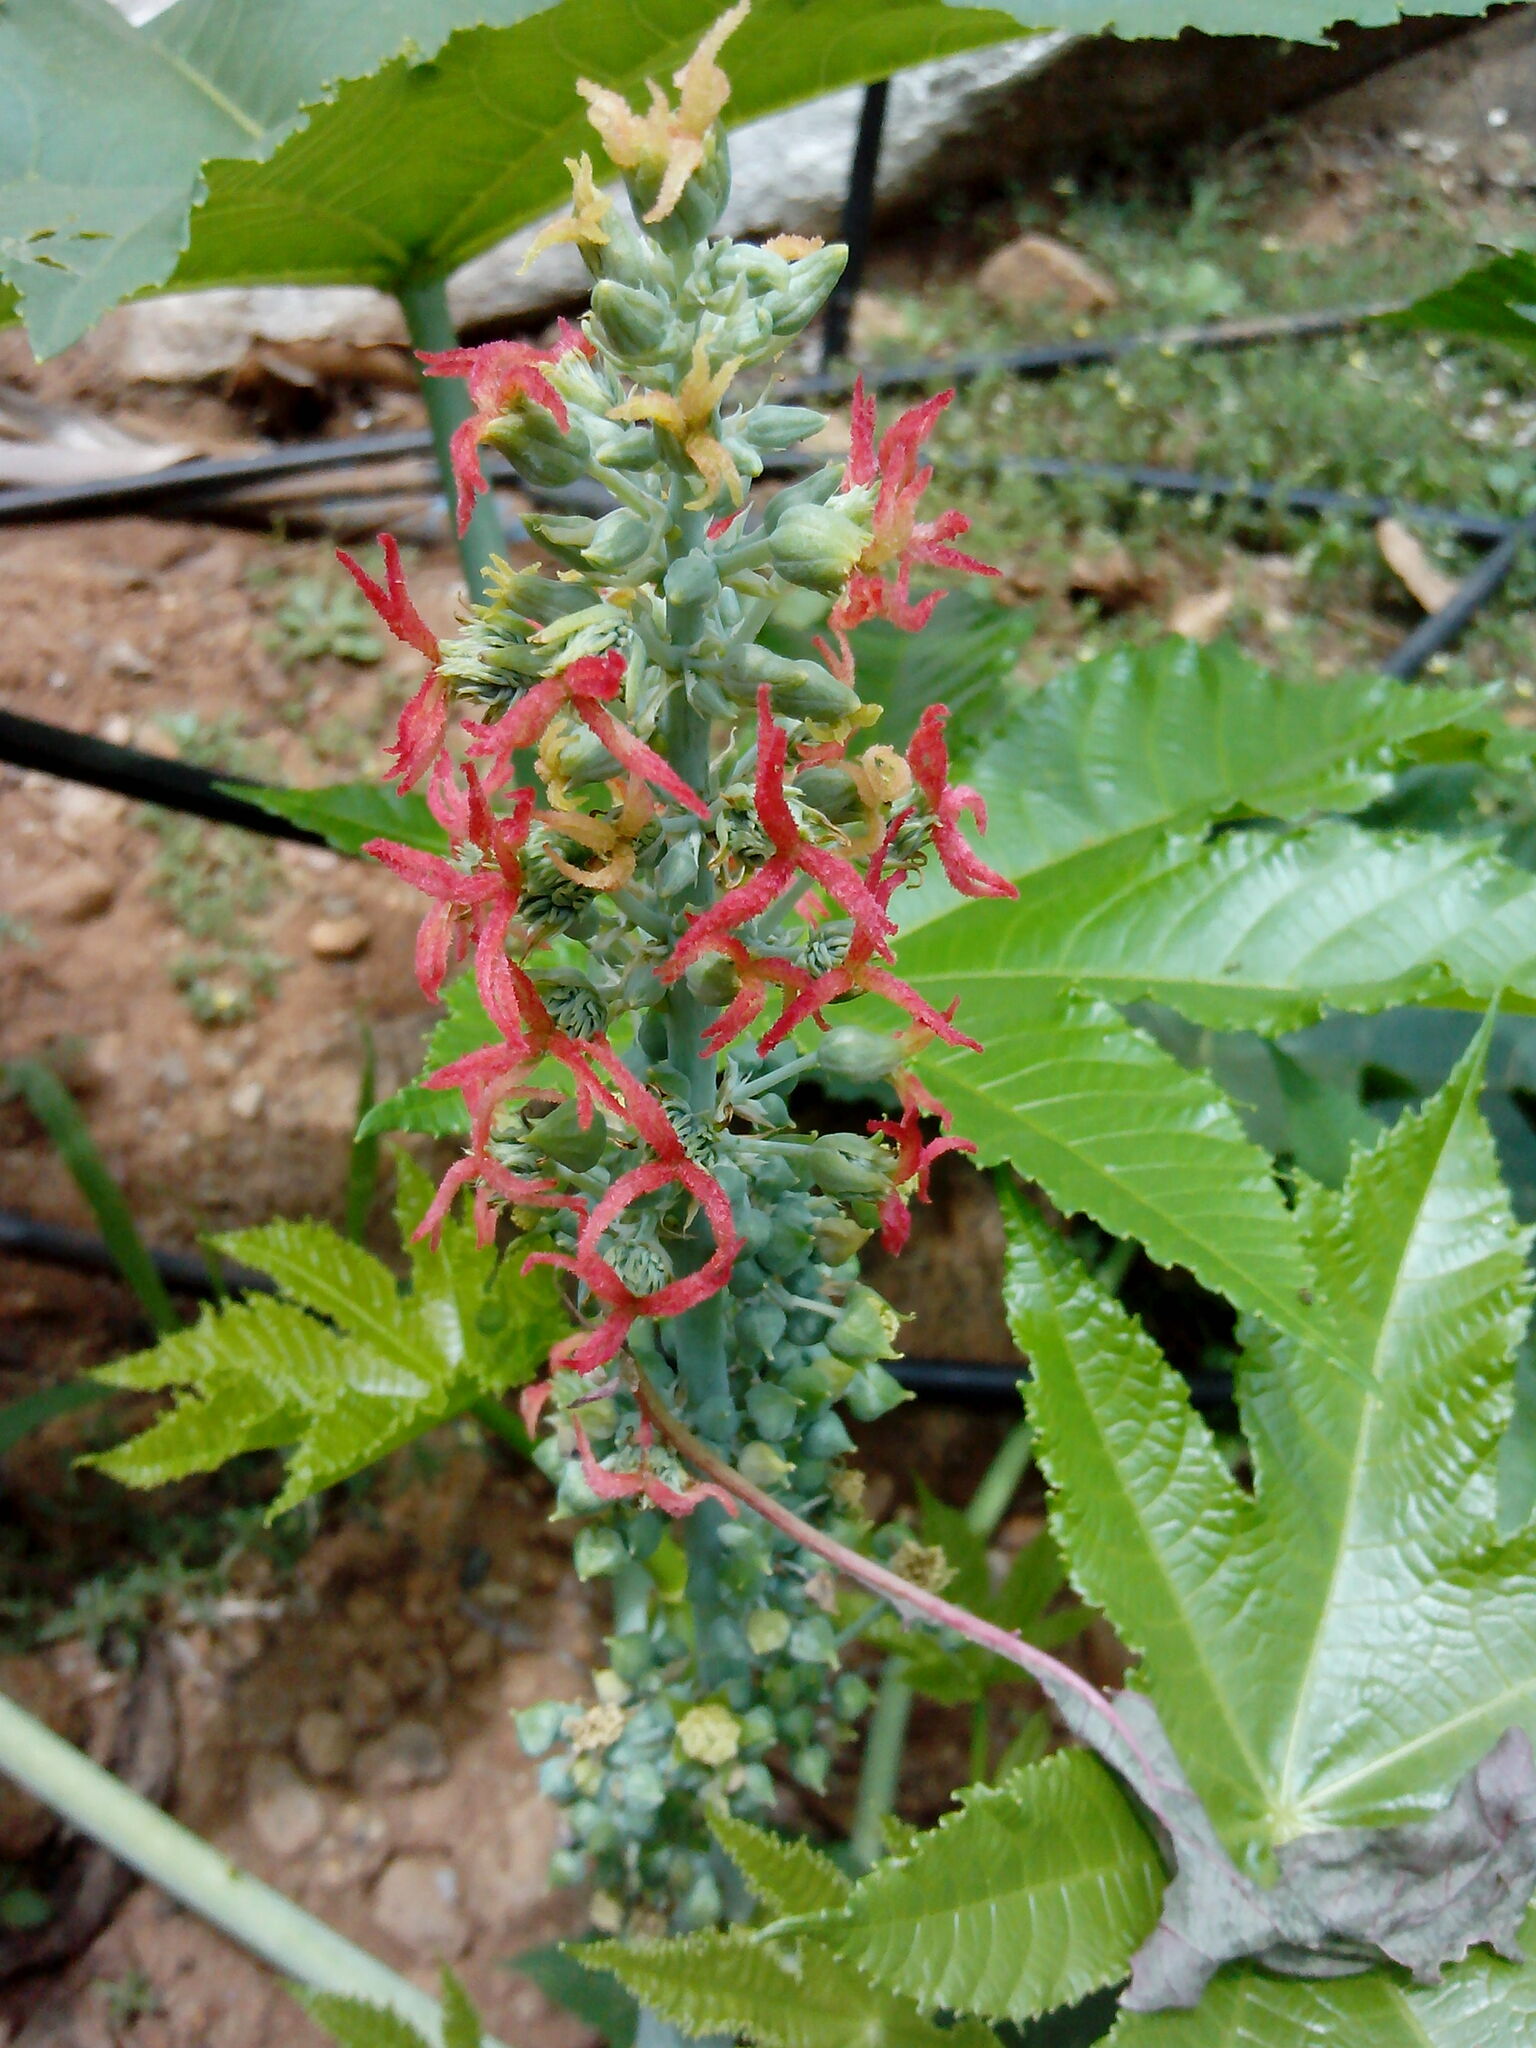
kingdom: Plantae
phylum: Tracheophyta
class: Magnoliopsida
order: Malpighiales
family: Euphorbiaceae
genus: Ricinus
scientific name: Ricinus communis
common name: Castor-oil-plant
